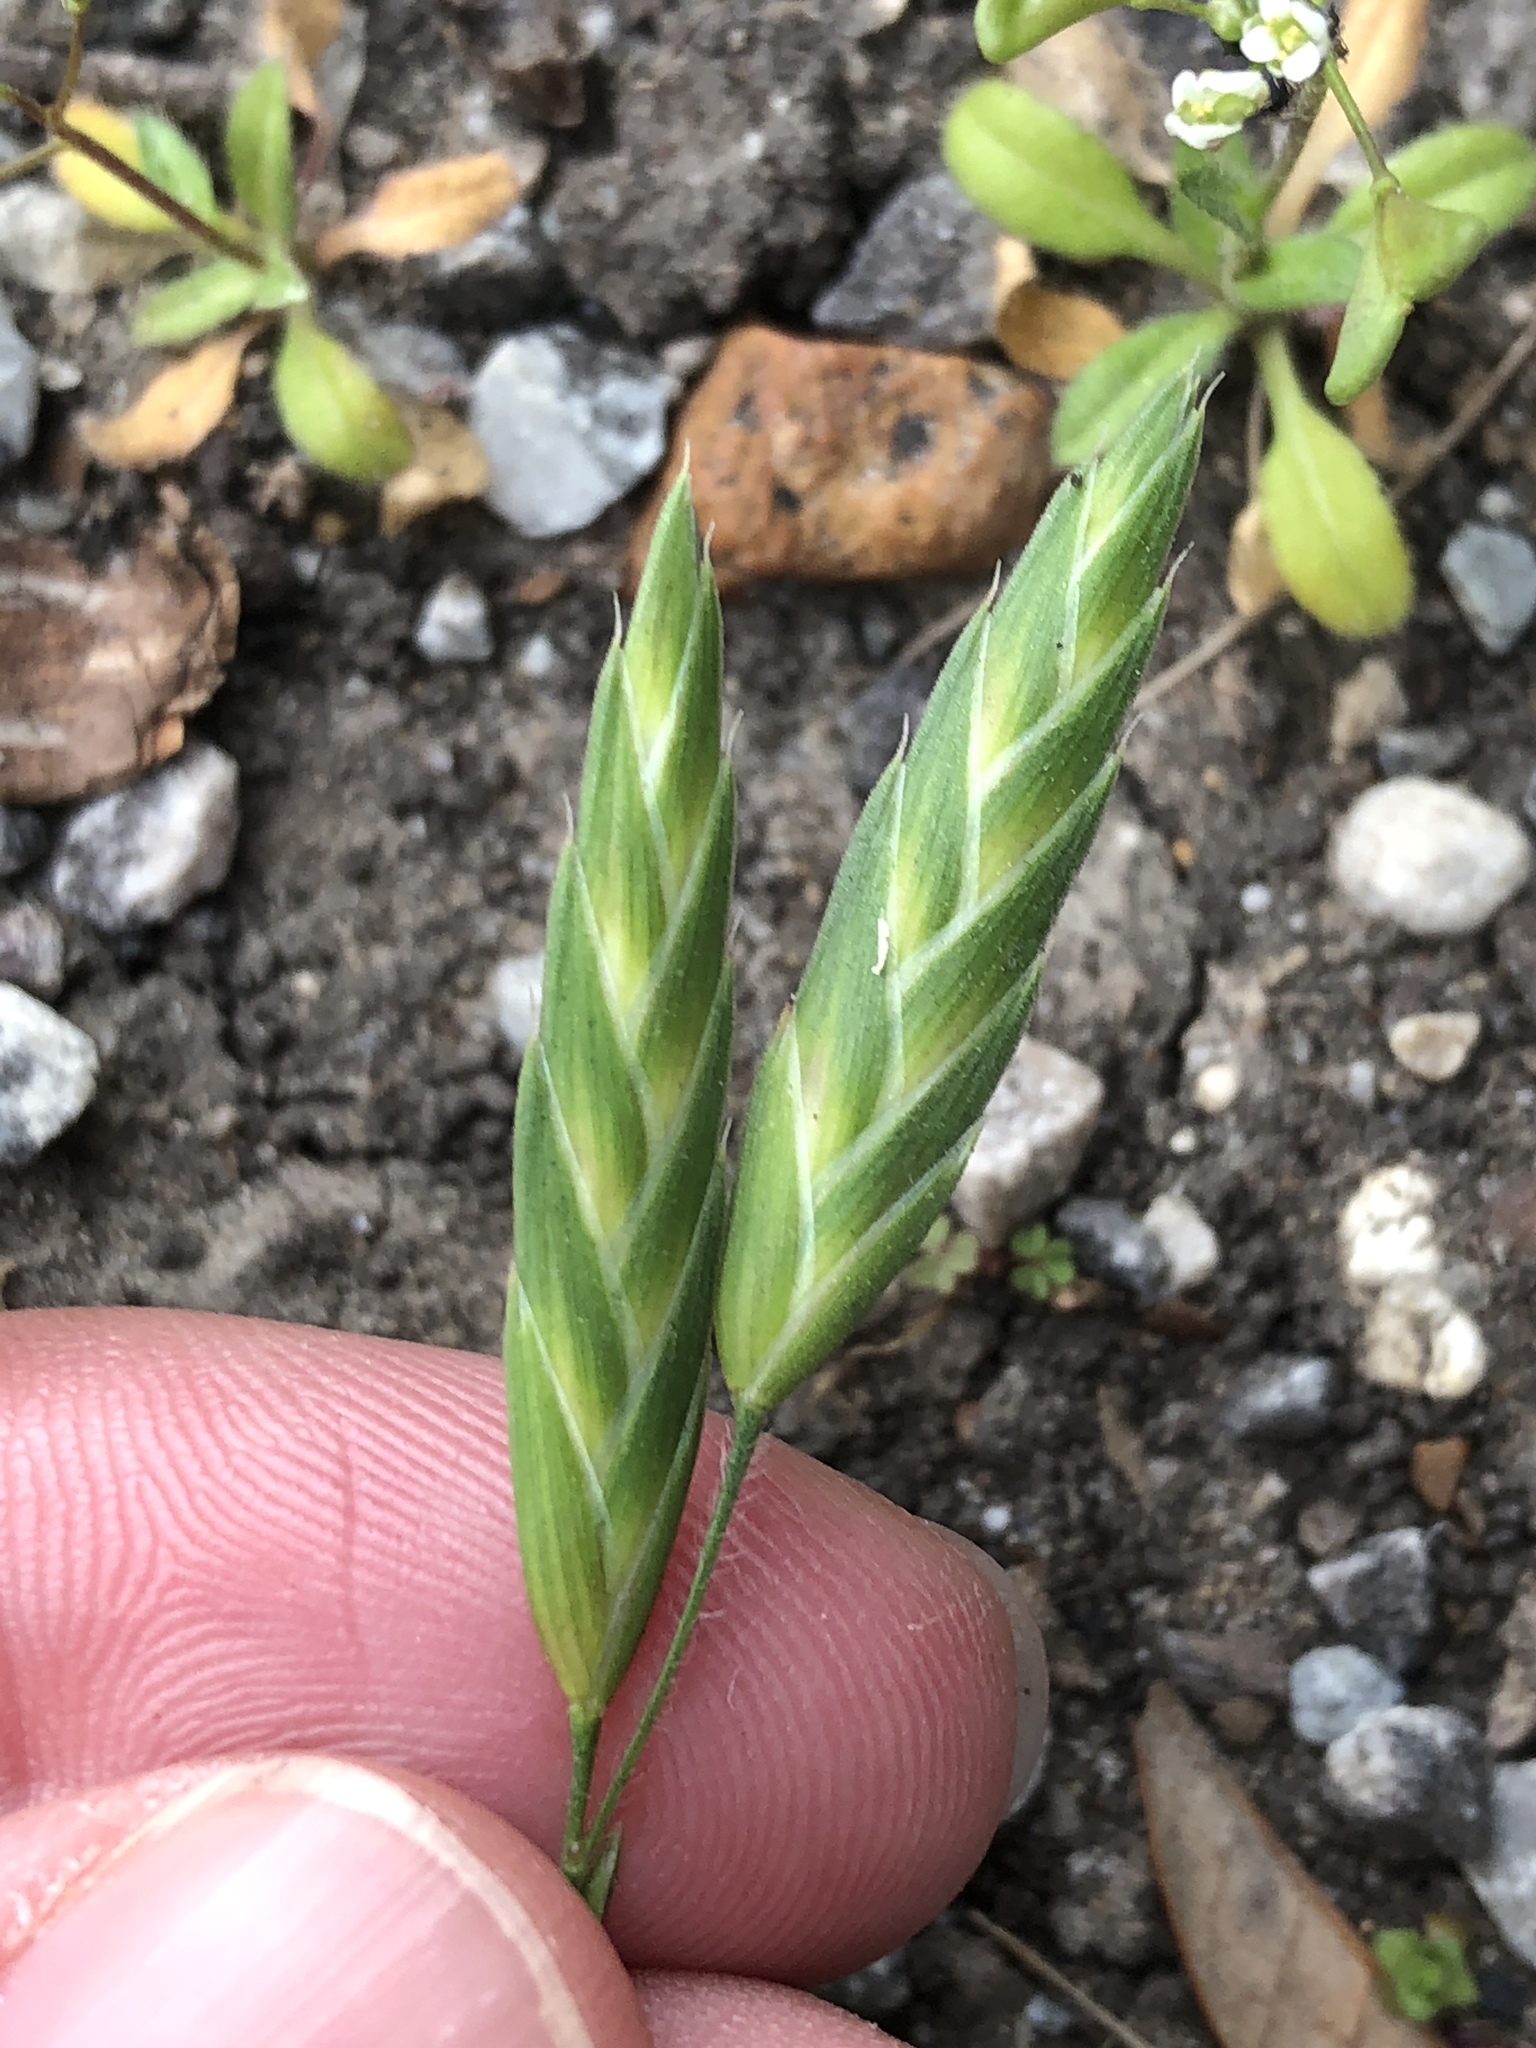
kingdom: Plantae
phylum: Tracheophyta
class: Liliopsida
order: Poales
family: Poaceae
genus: Bromus
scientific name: Bromus catharticus
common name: Rescuegrass
